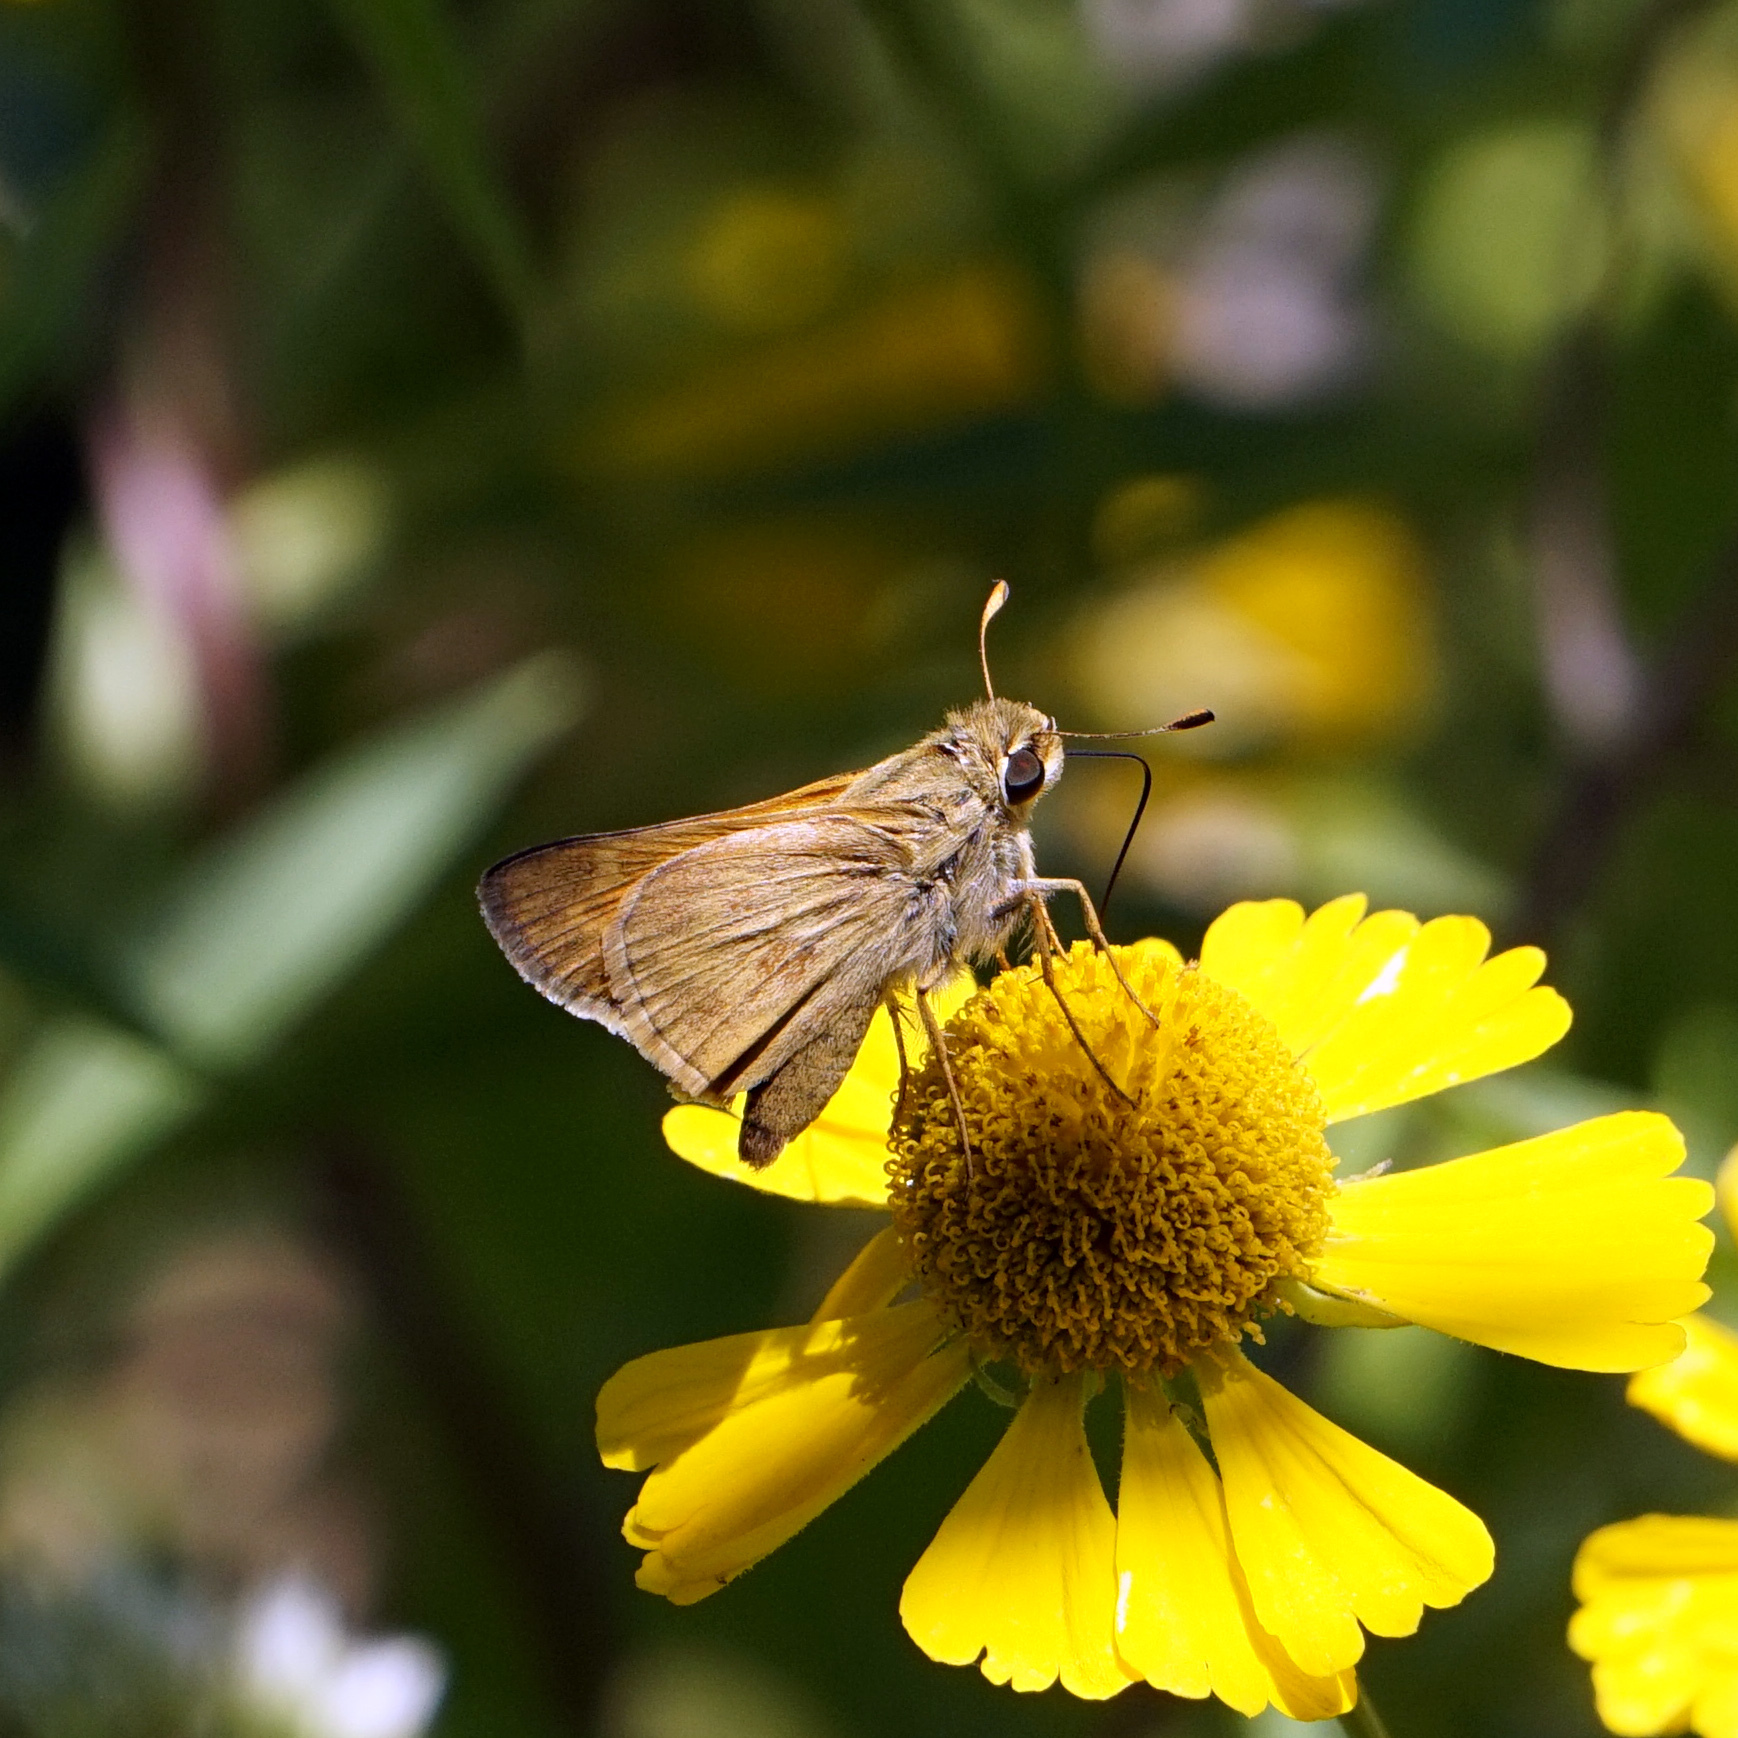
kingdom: Animalia
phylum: Arthropoda
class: Insecta
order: Lepidoptera
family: Hesperiidae
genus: Atalopedes
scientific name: Atalopedes
